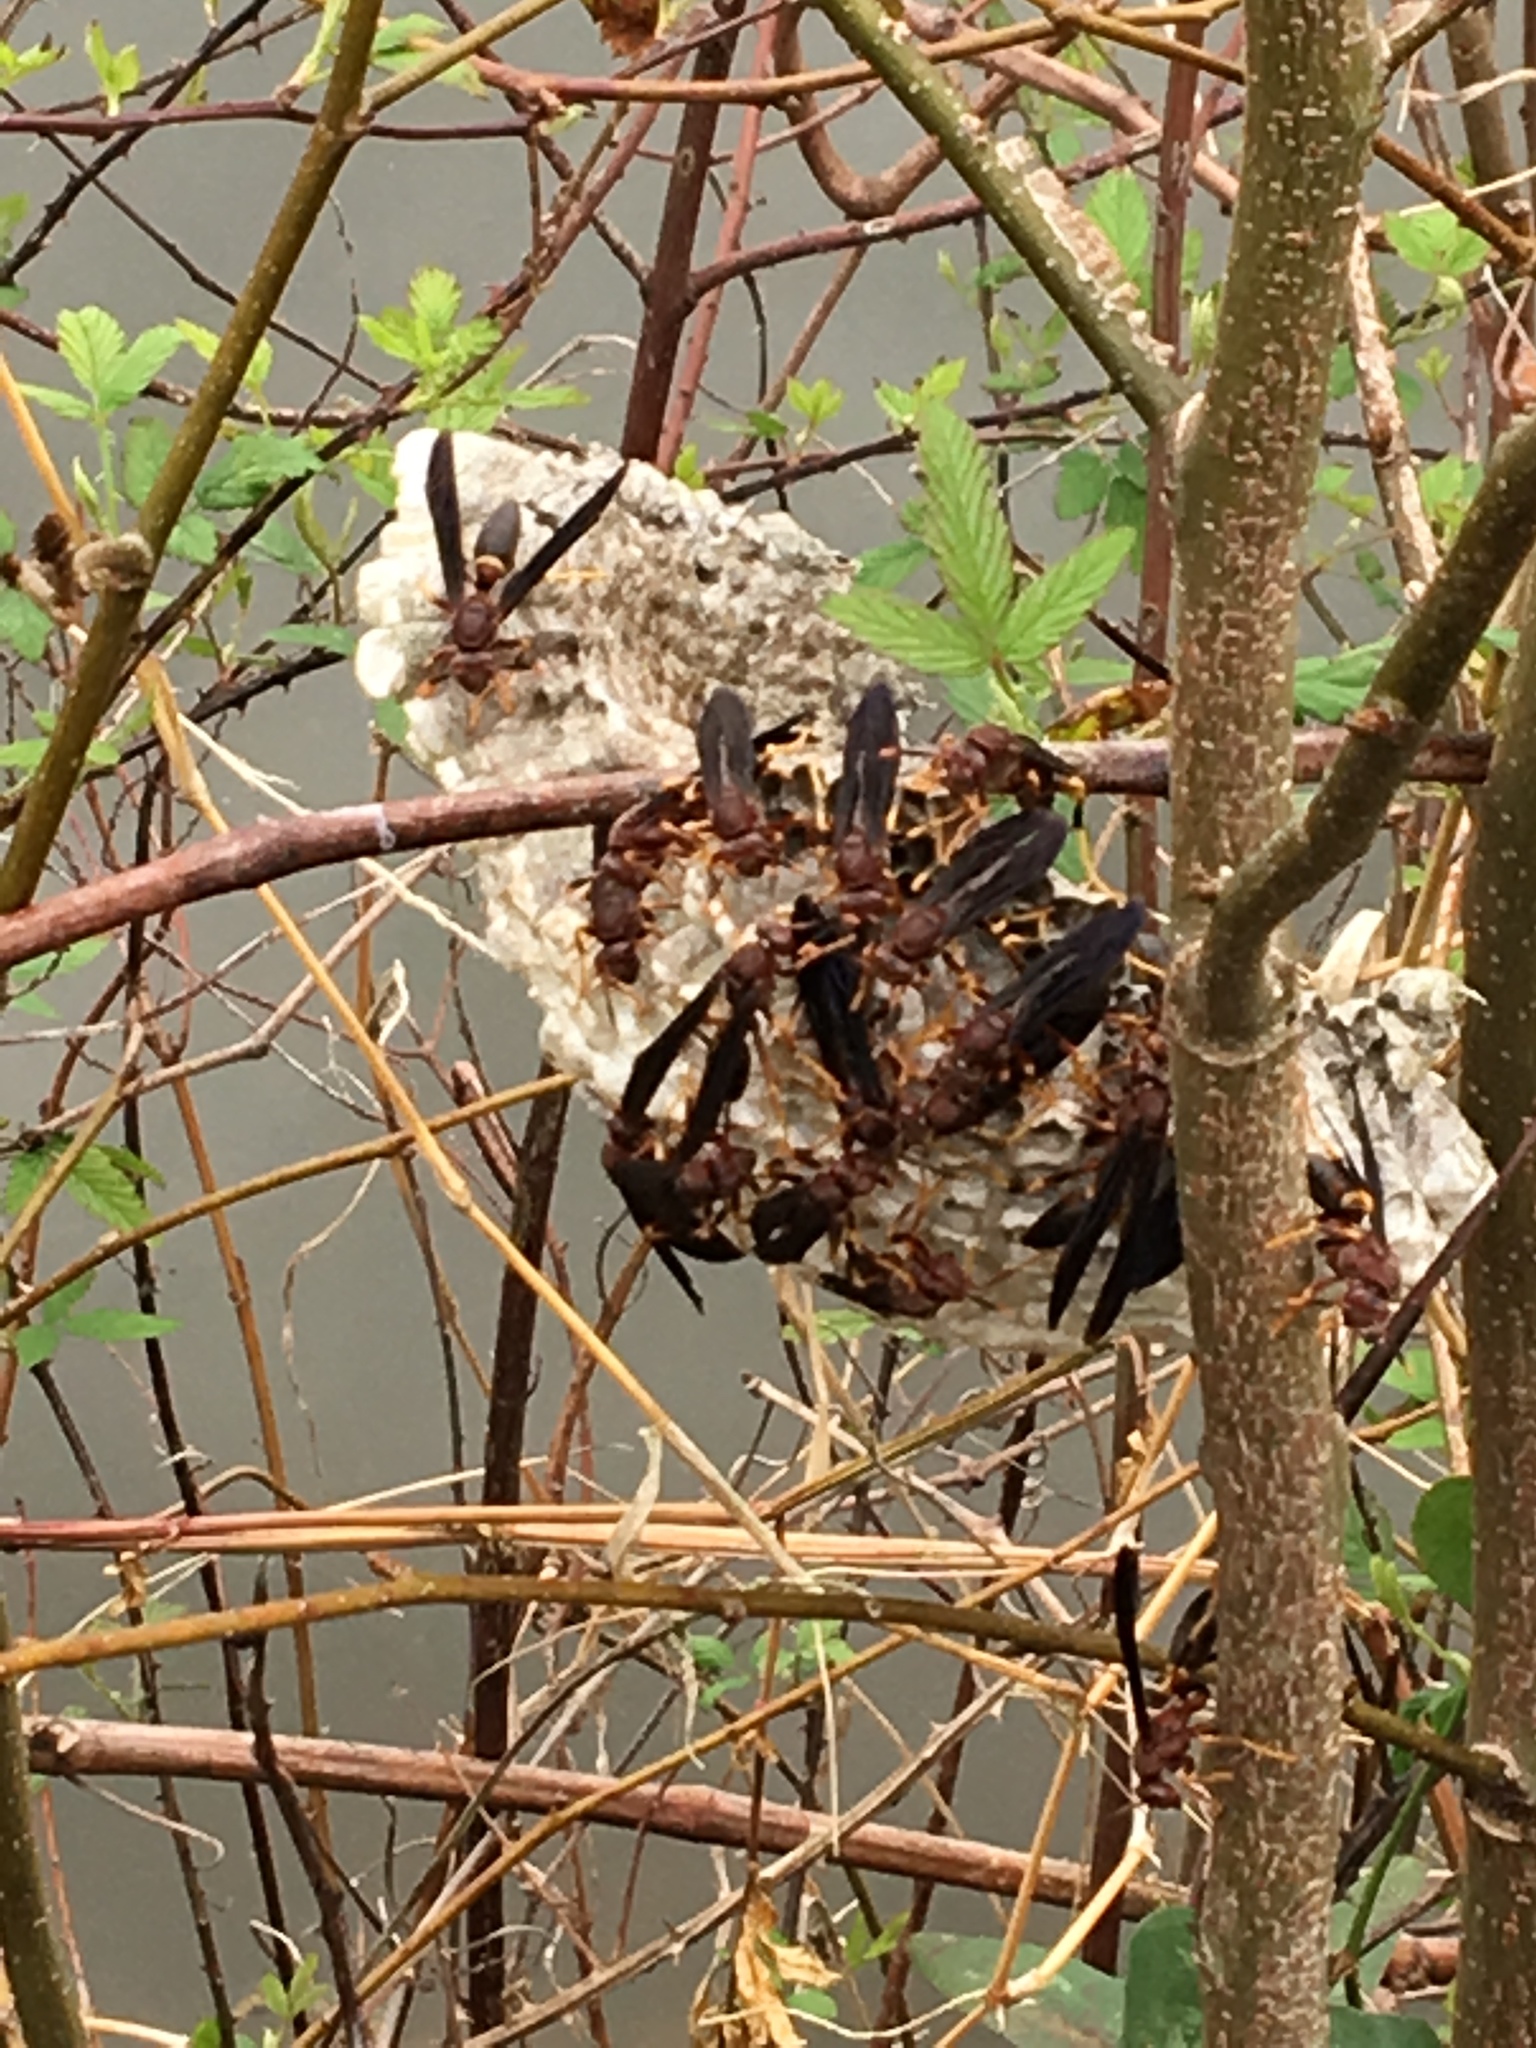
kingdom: Animalia
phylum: Arthropoda
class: Insecta
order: Hymenoptera
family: Eumenidae
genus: Polistes
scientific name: Polistes annularis
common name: Ringed paper wasp
